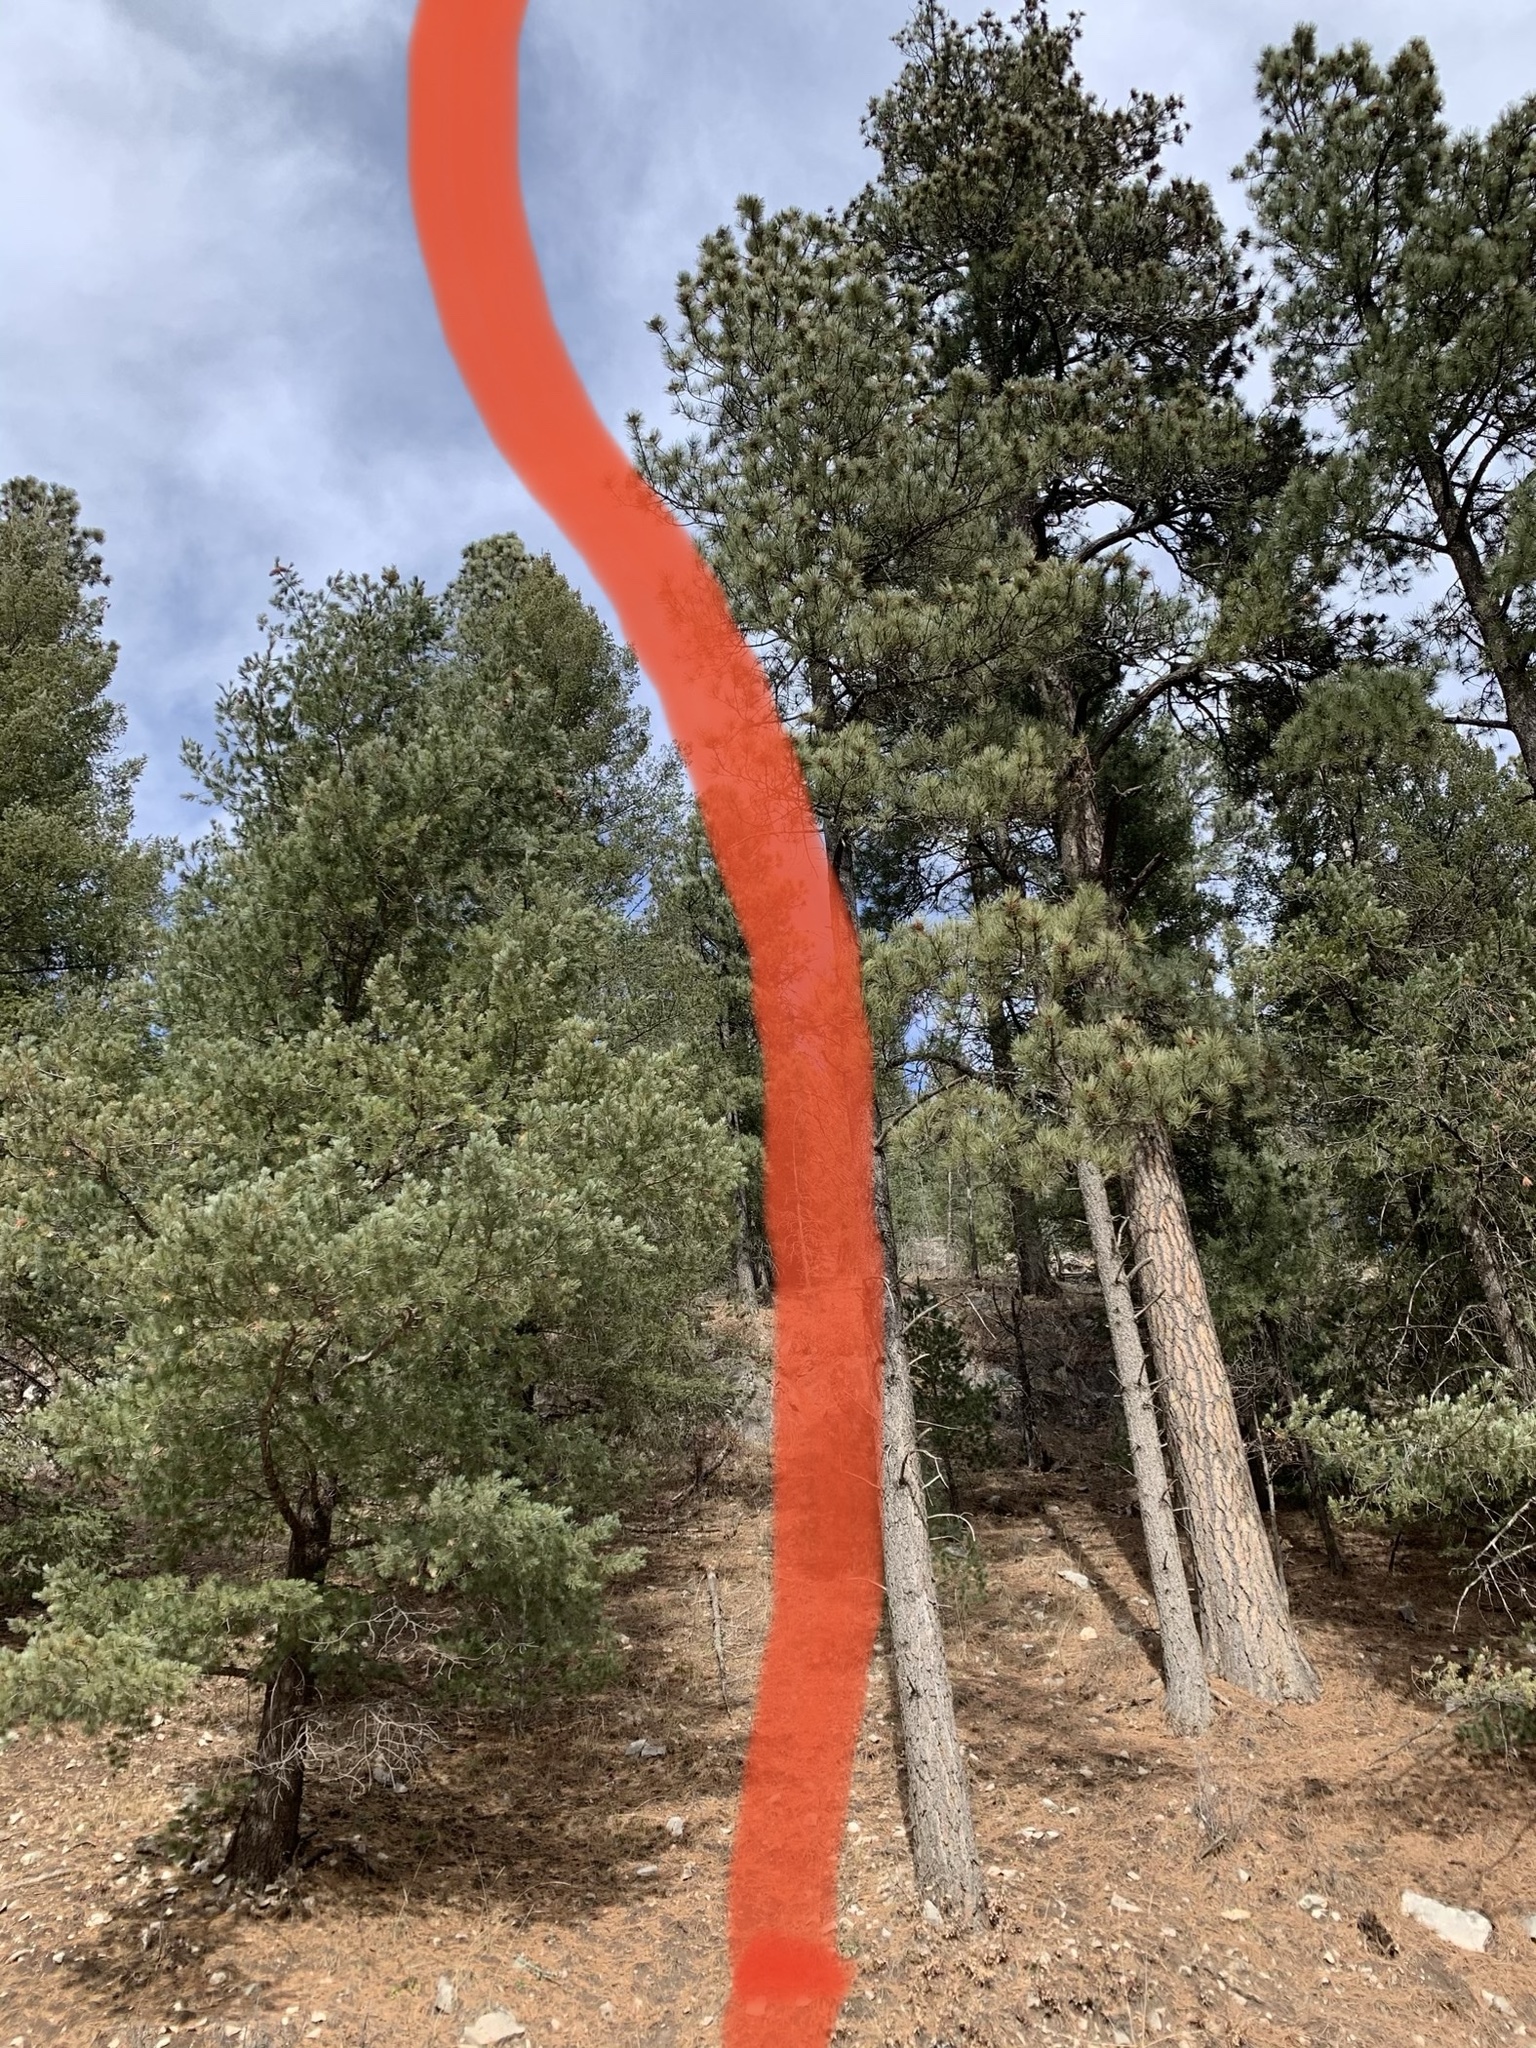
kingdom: Plantae
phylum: Tracheophyta
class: Pinopsida
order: Pinales
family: Pinaceae
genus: Pinus
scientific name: Pinus ponderosa
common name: Western yellow-pine
